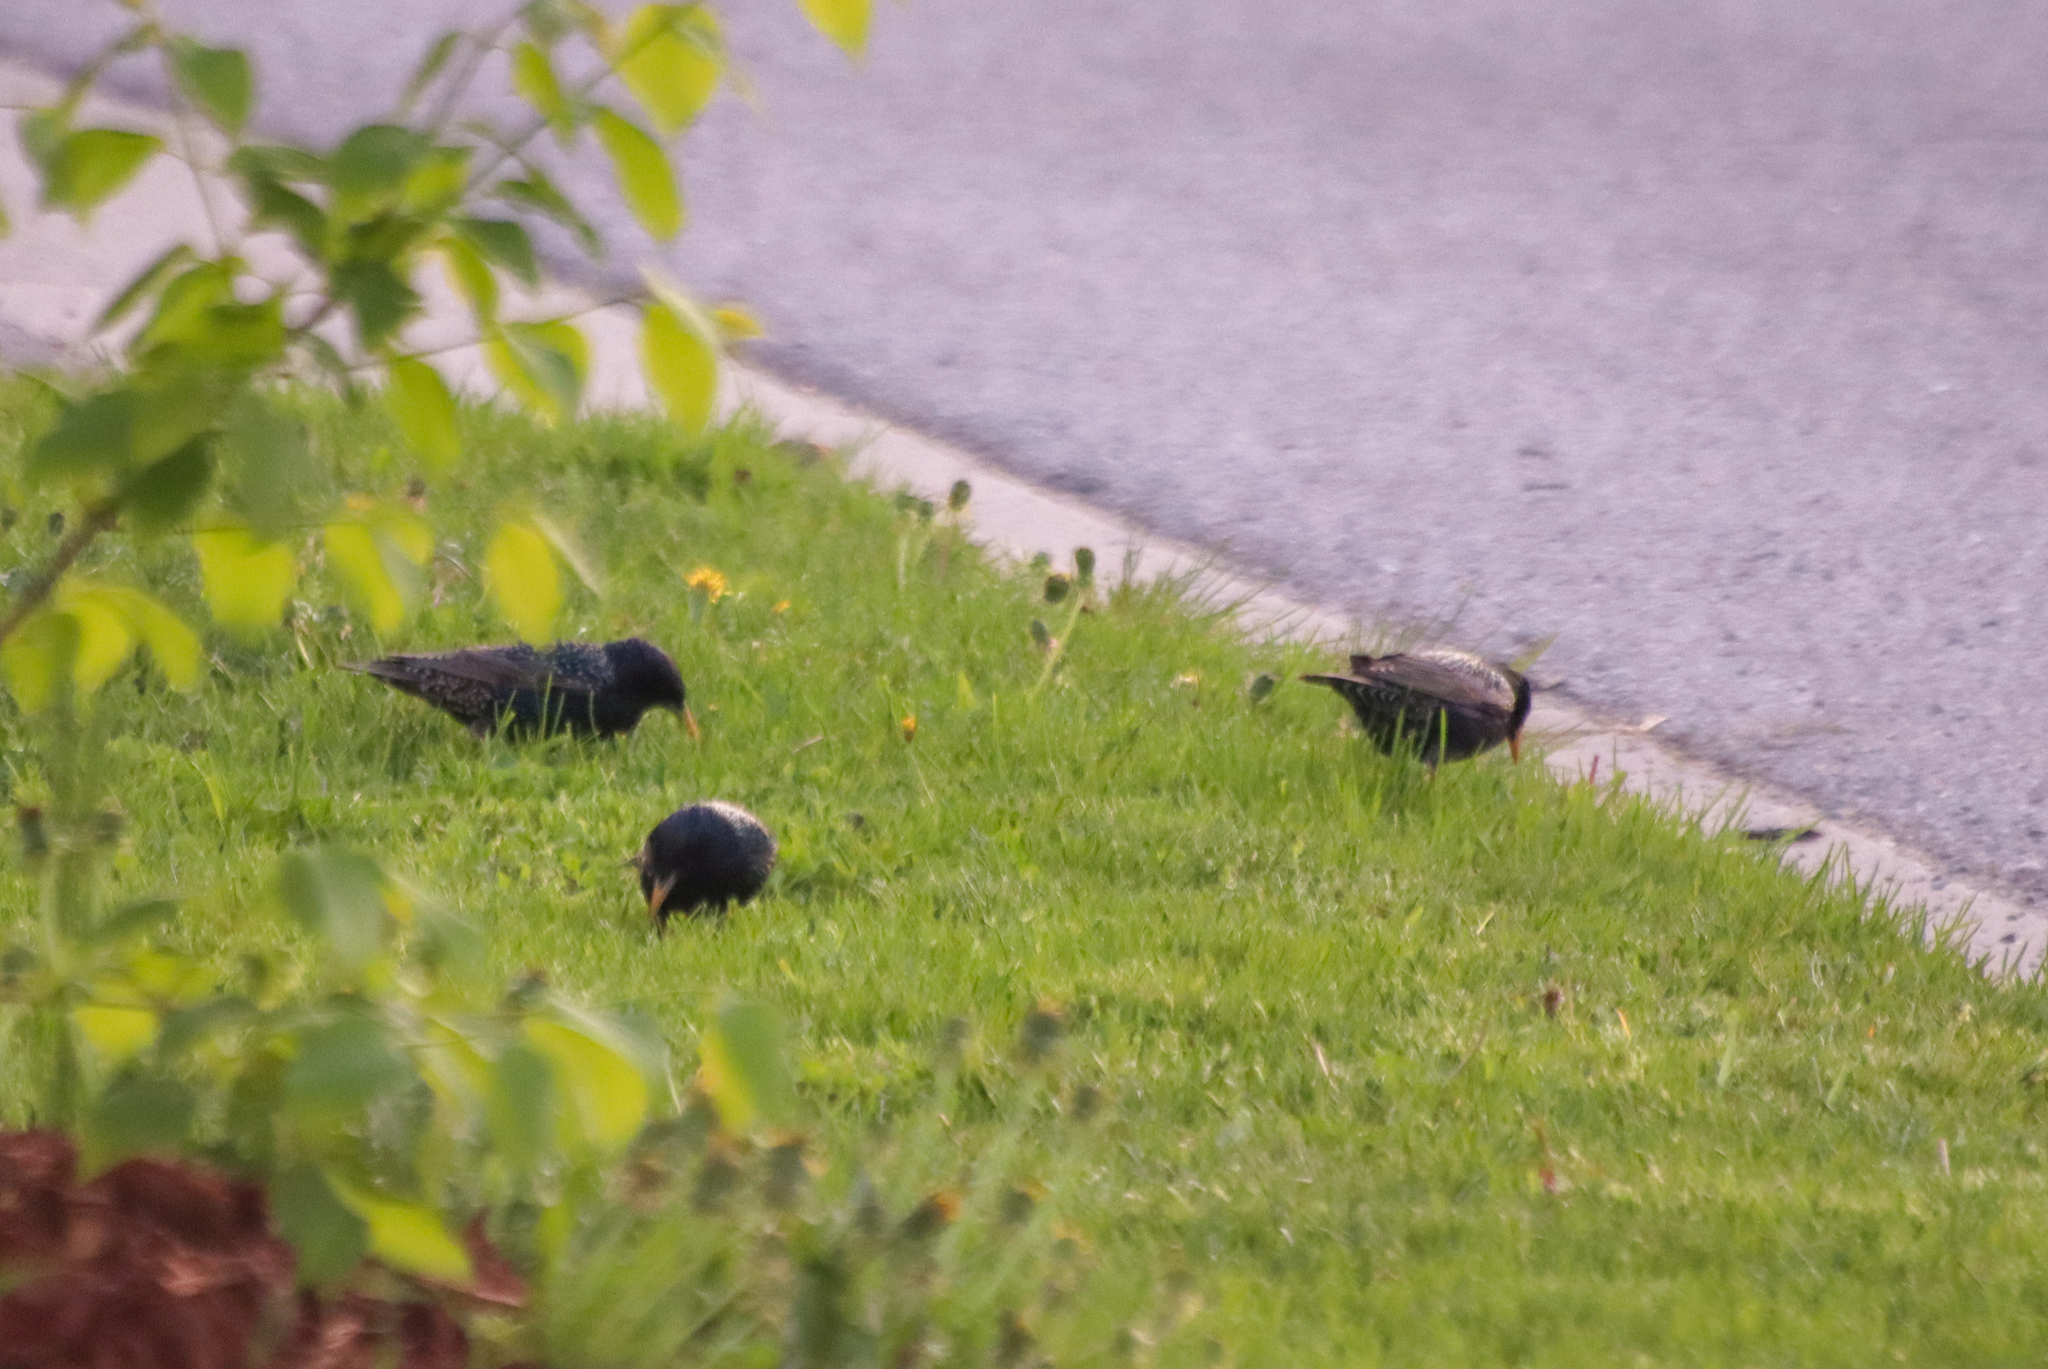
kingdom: Animalia
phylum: Chordata
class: Aves
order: Passeriformes
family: Sturnidae
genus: Sturnus
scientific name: Sturnus vulgaris
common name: Common starling
